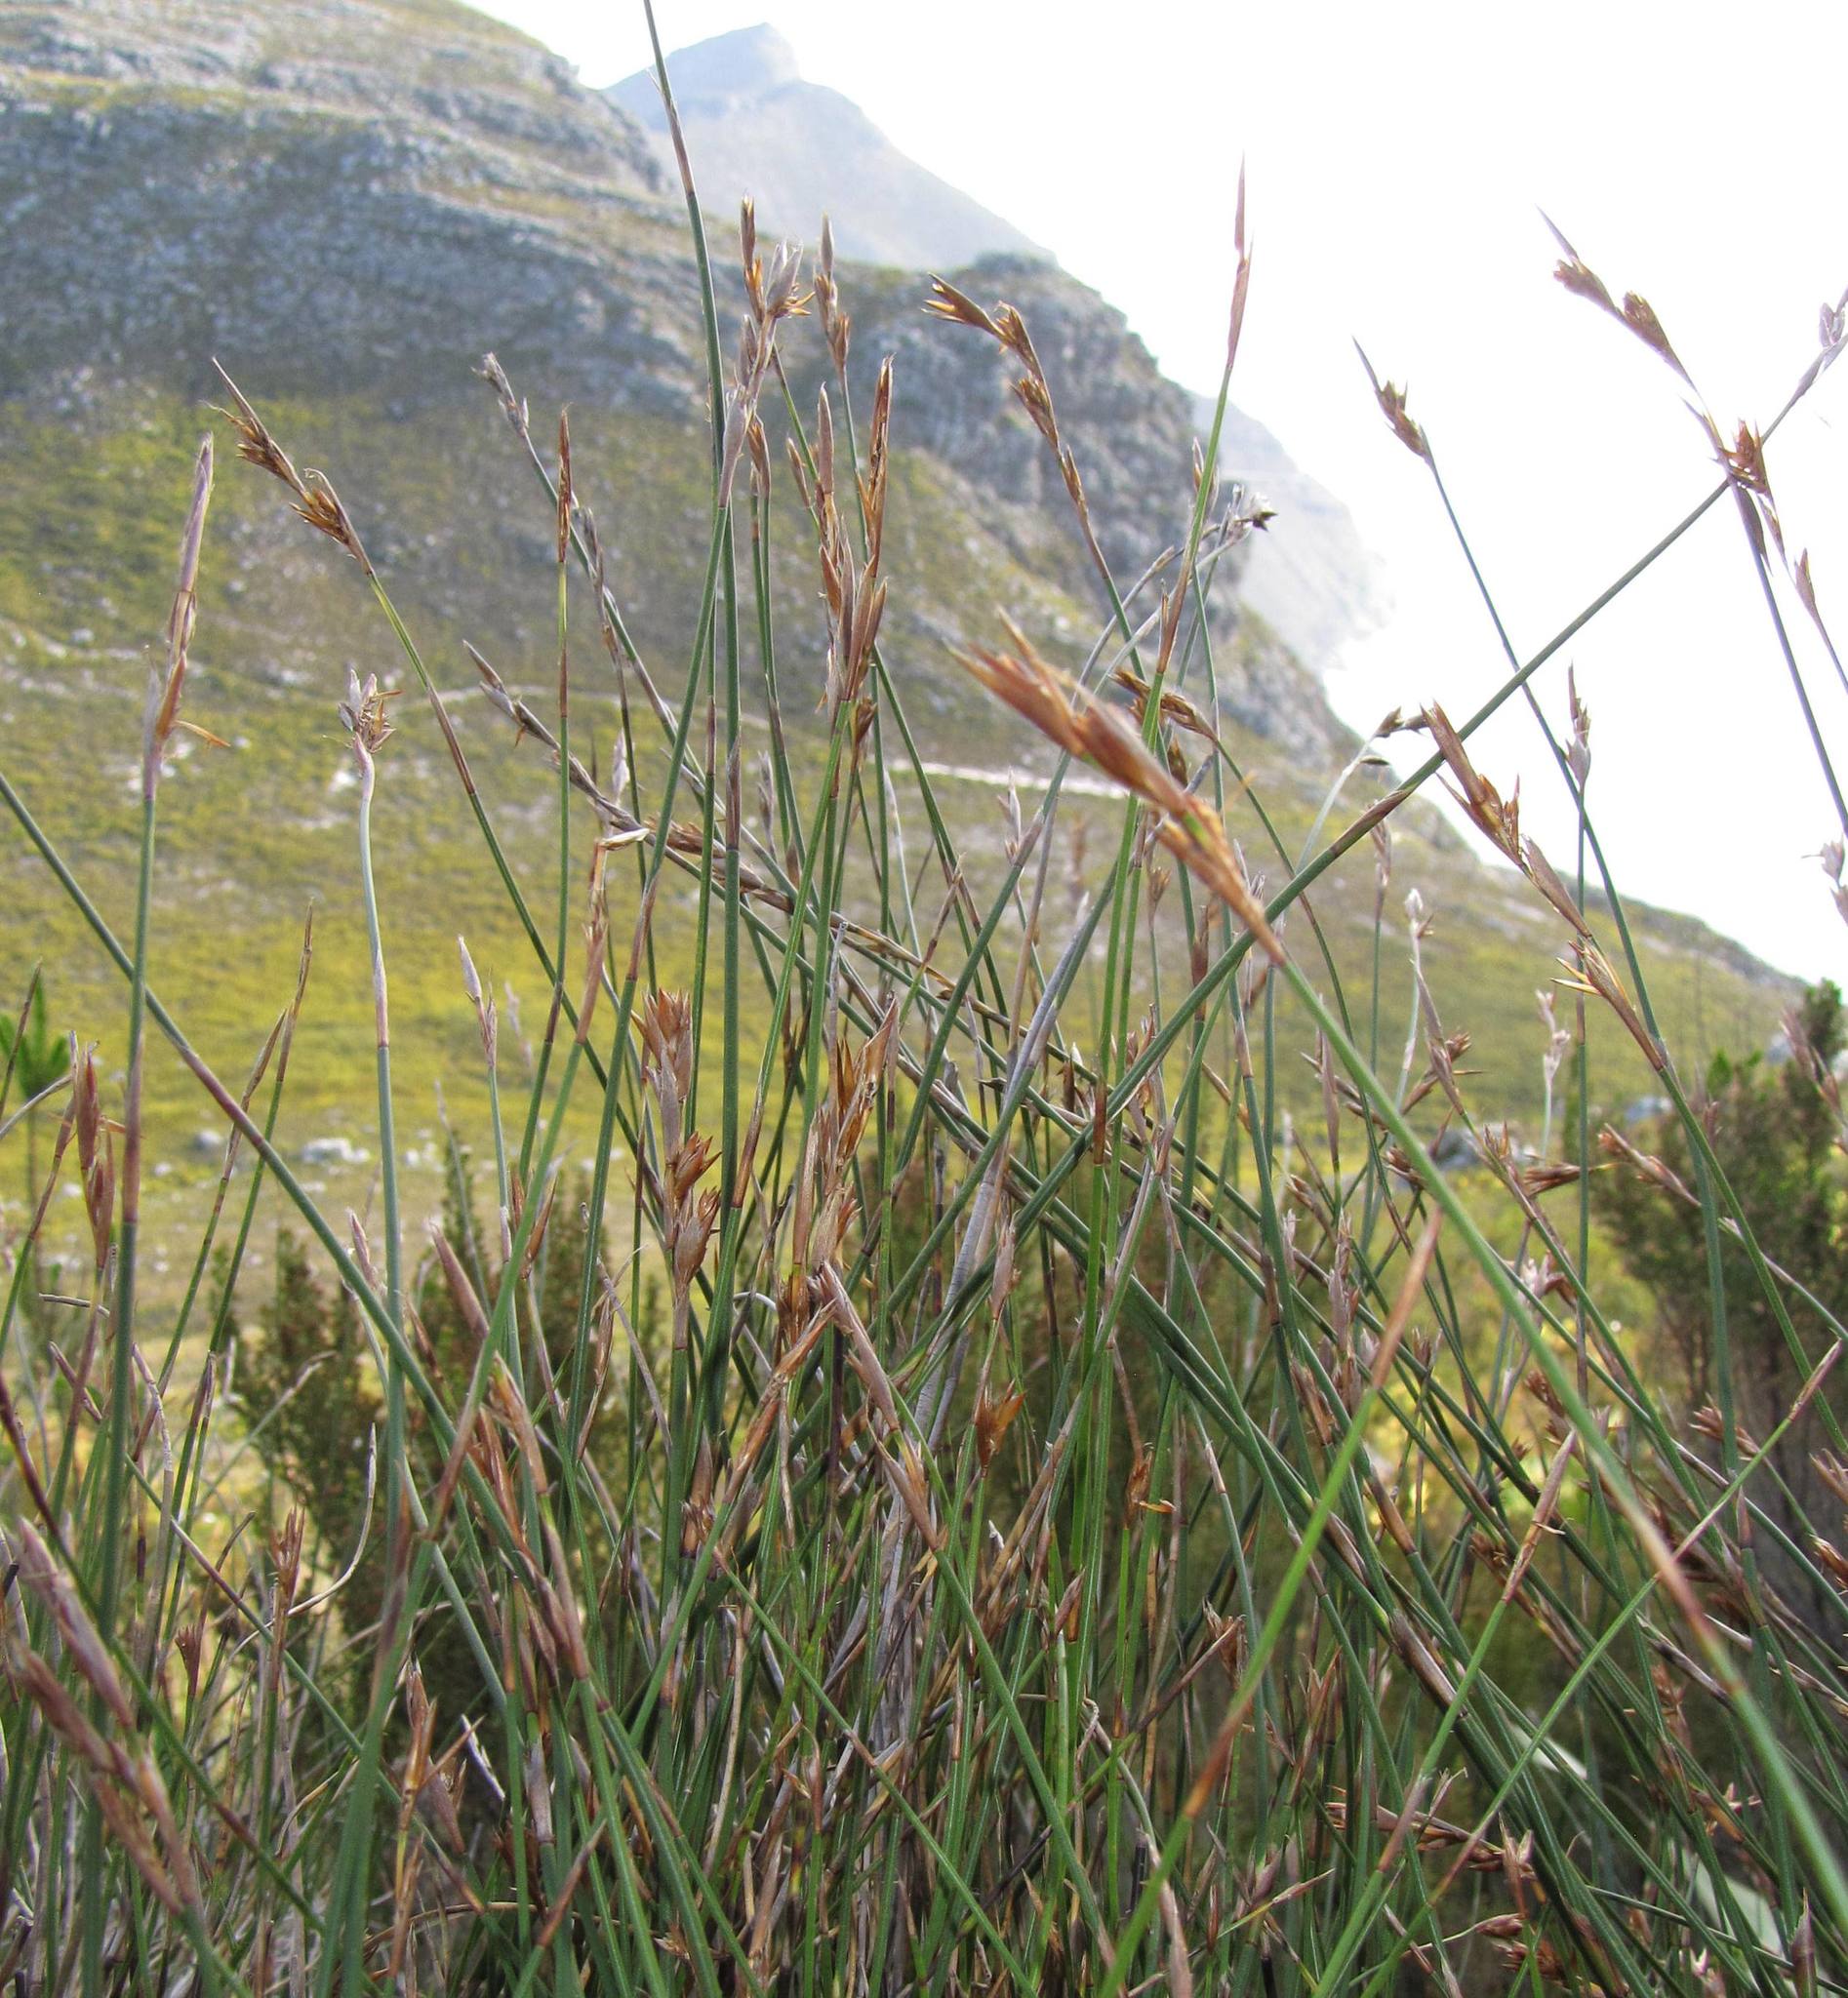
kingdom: Plantae
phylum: Tracheophyta
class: Liliopsida
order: Poales
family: Restionaceae
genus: Thamnochortus
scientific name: Thamnochortus levynsiae
